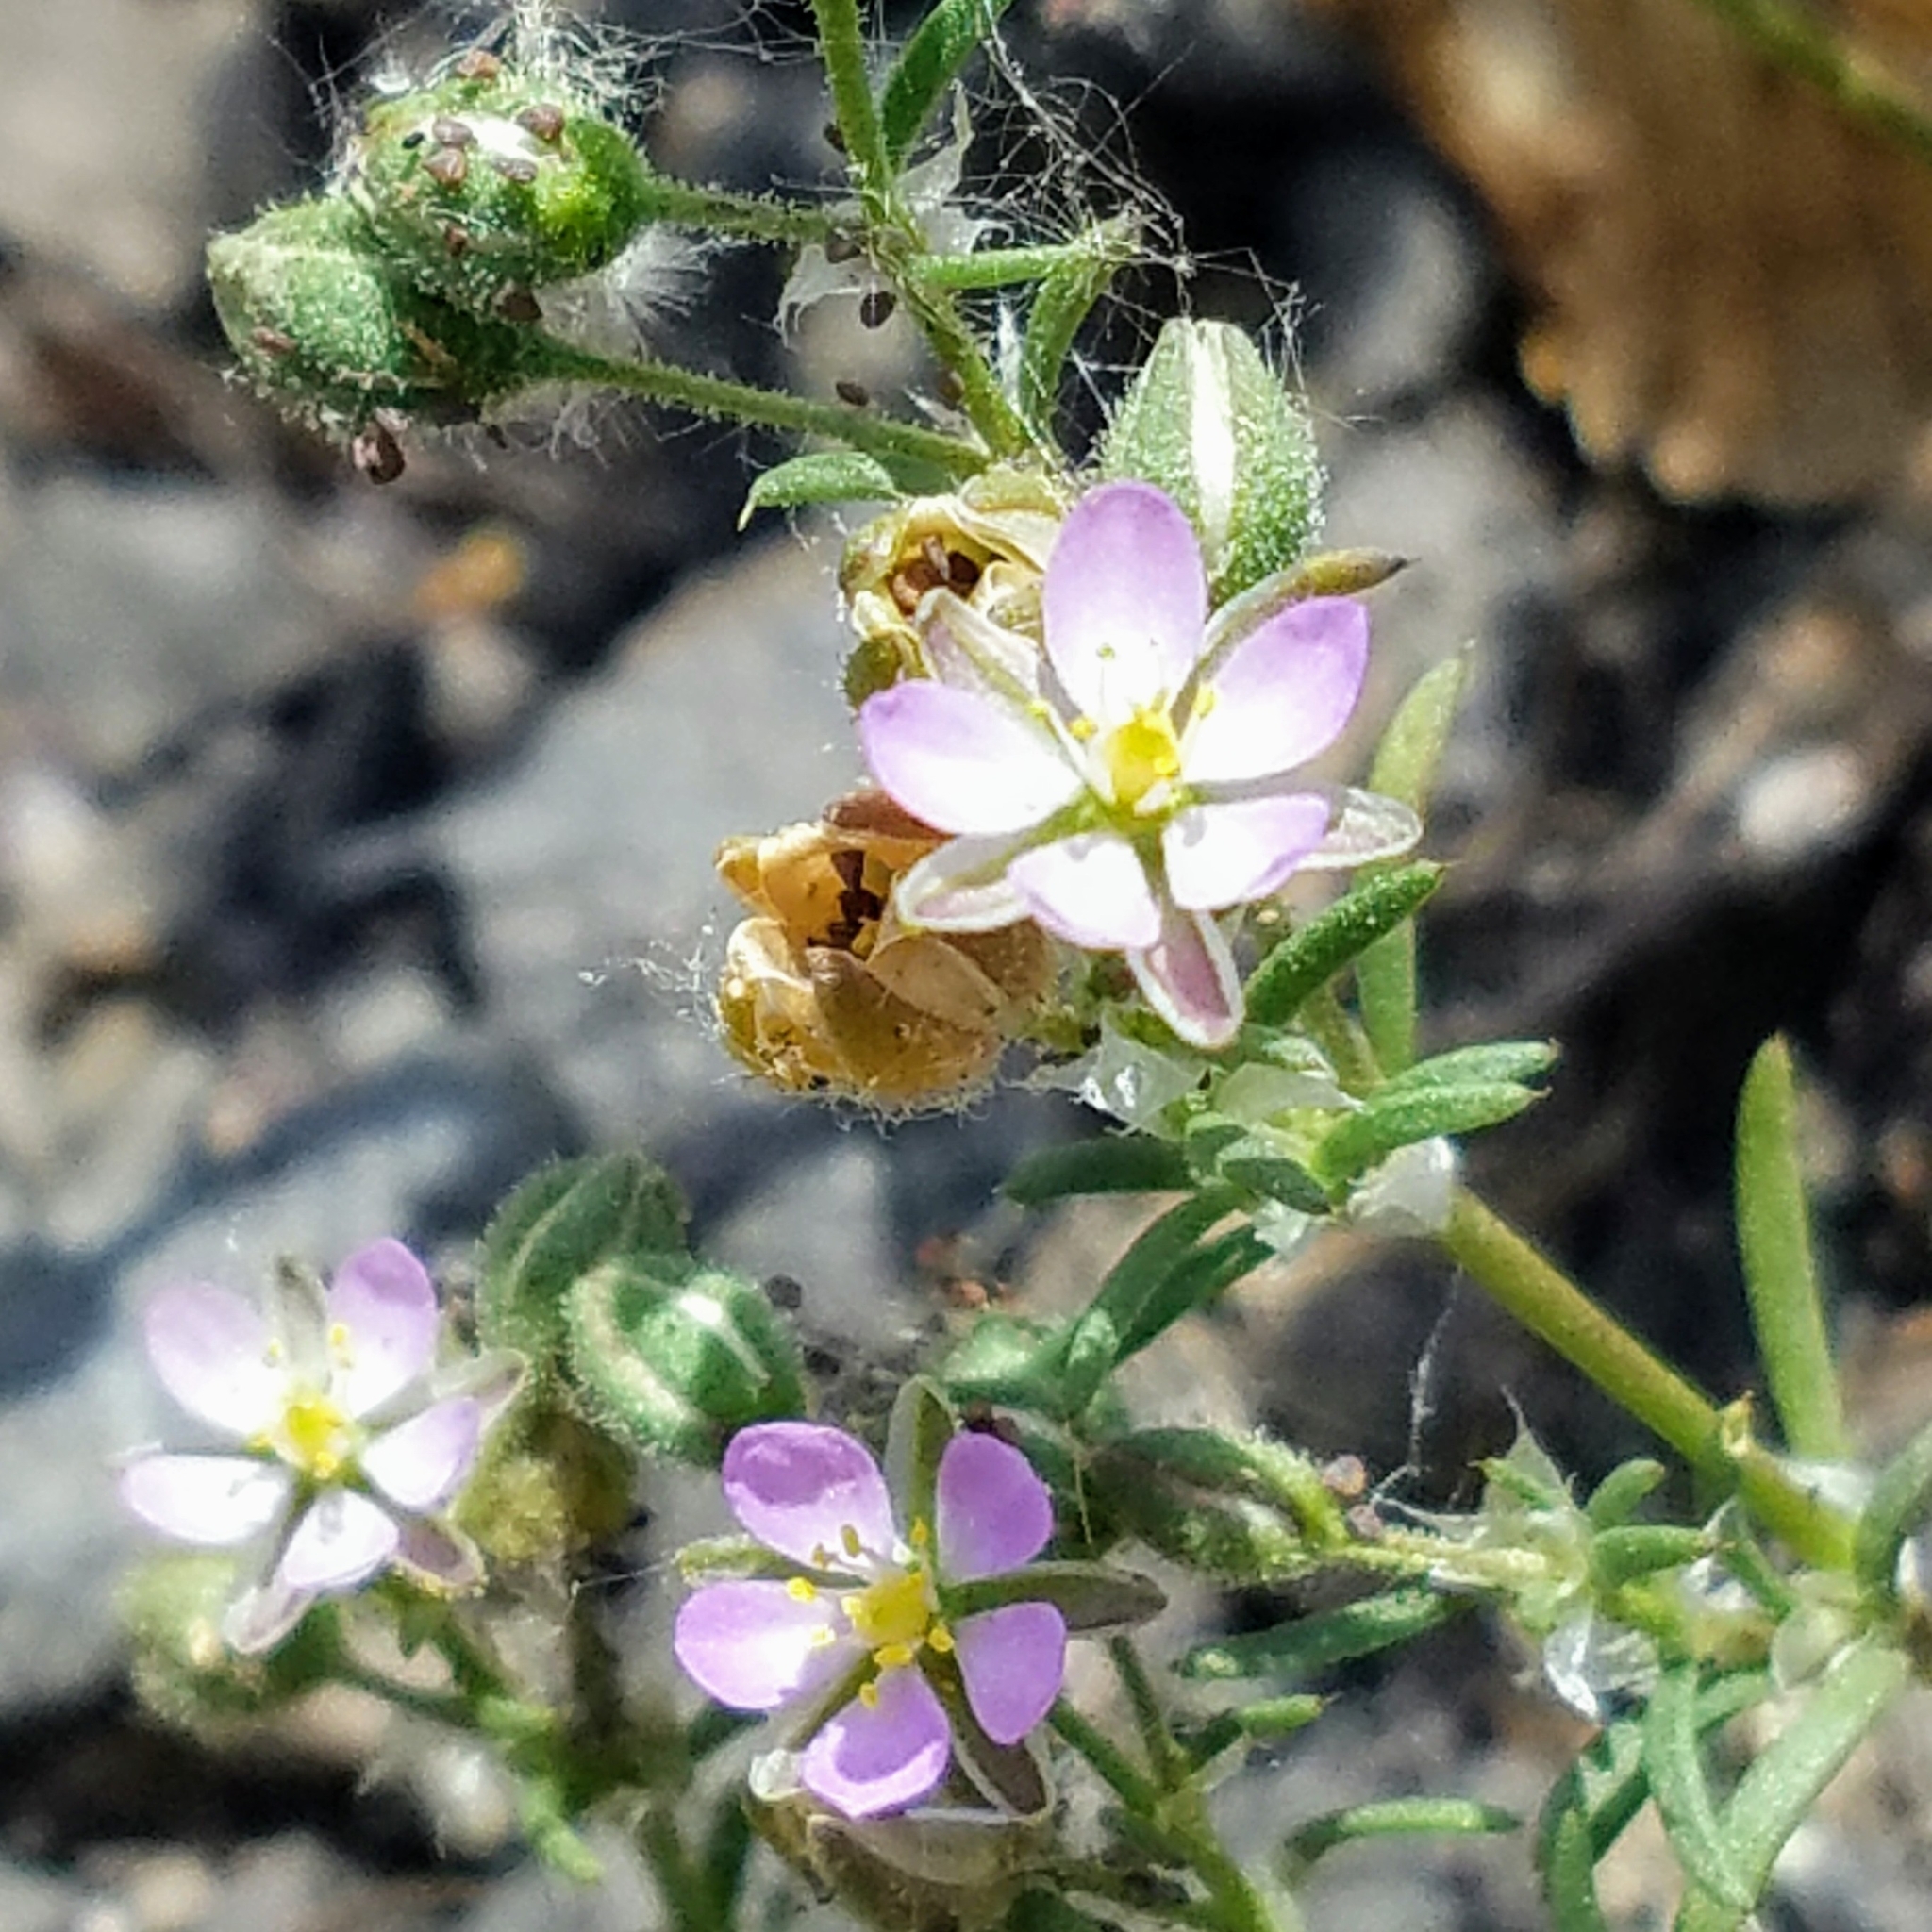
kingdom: Plantae
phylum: Tracheophyta
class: Magnoliopsida
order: Caryophyllales
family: Caryophyllaceae
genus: Spergularia
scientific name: Spergularia rubra
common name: Red sand-spurrey
